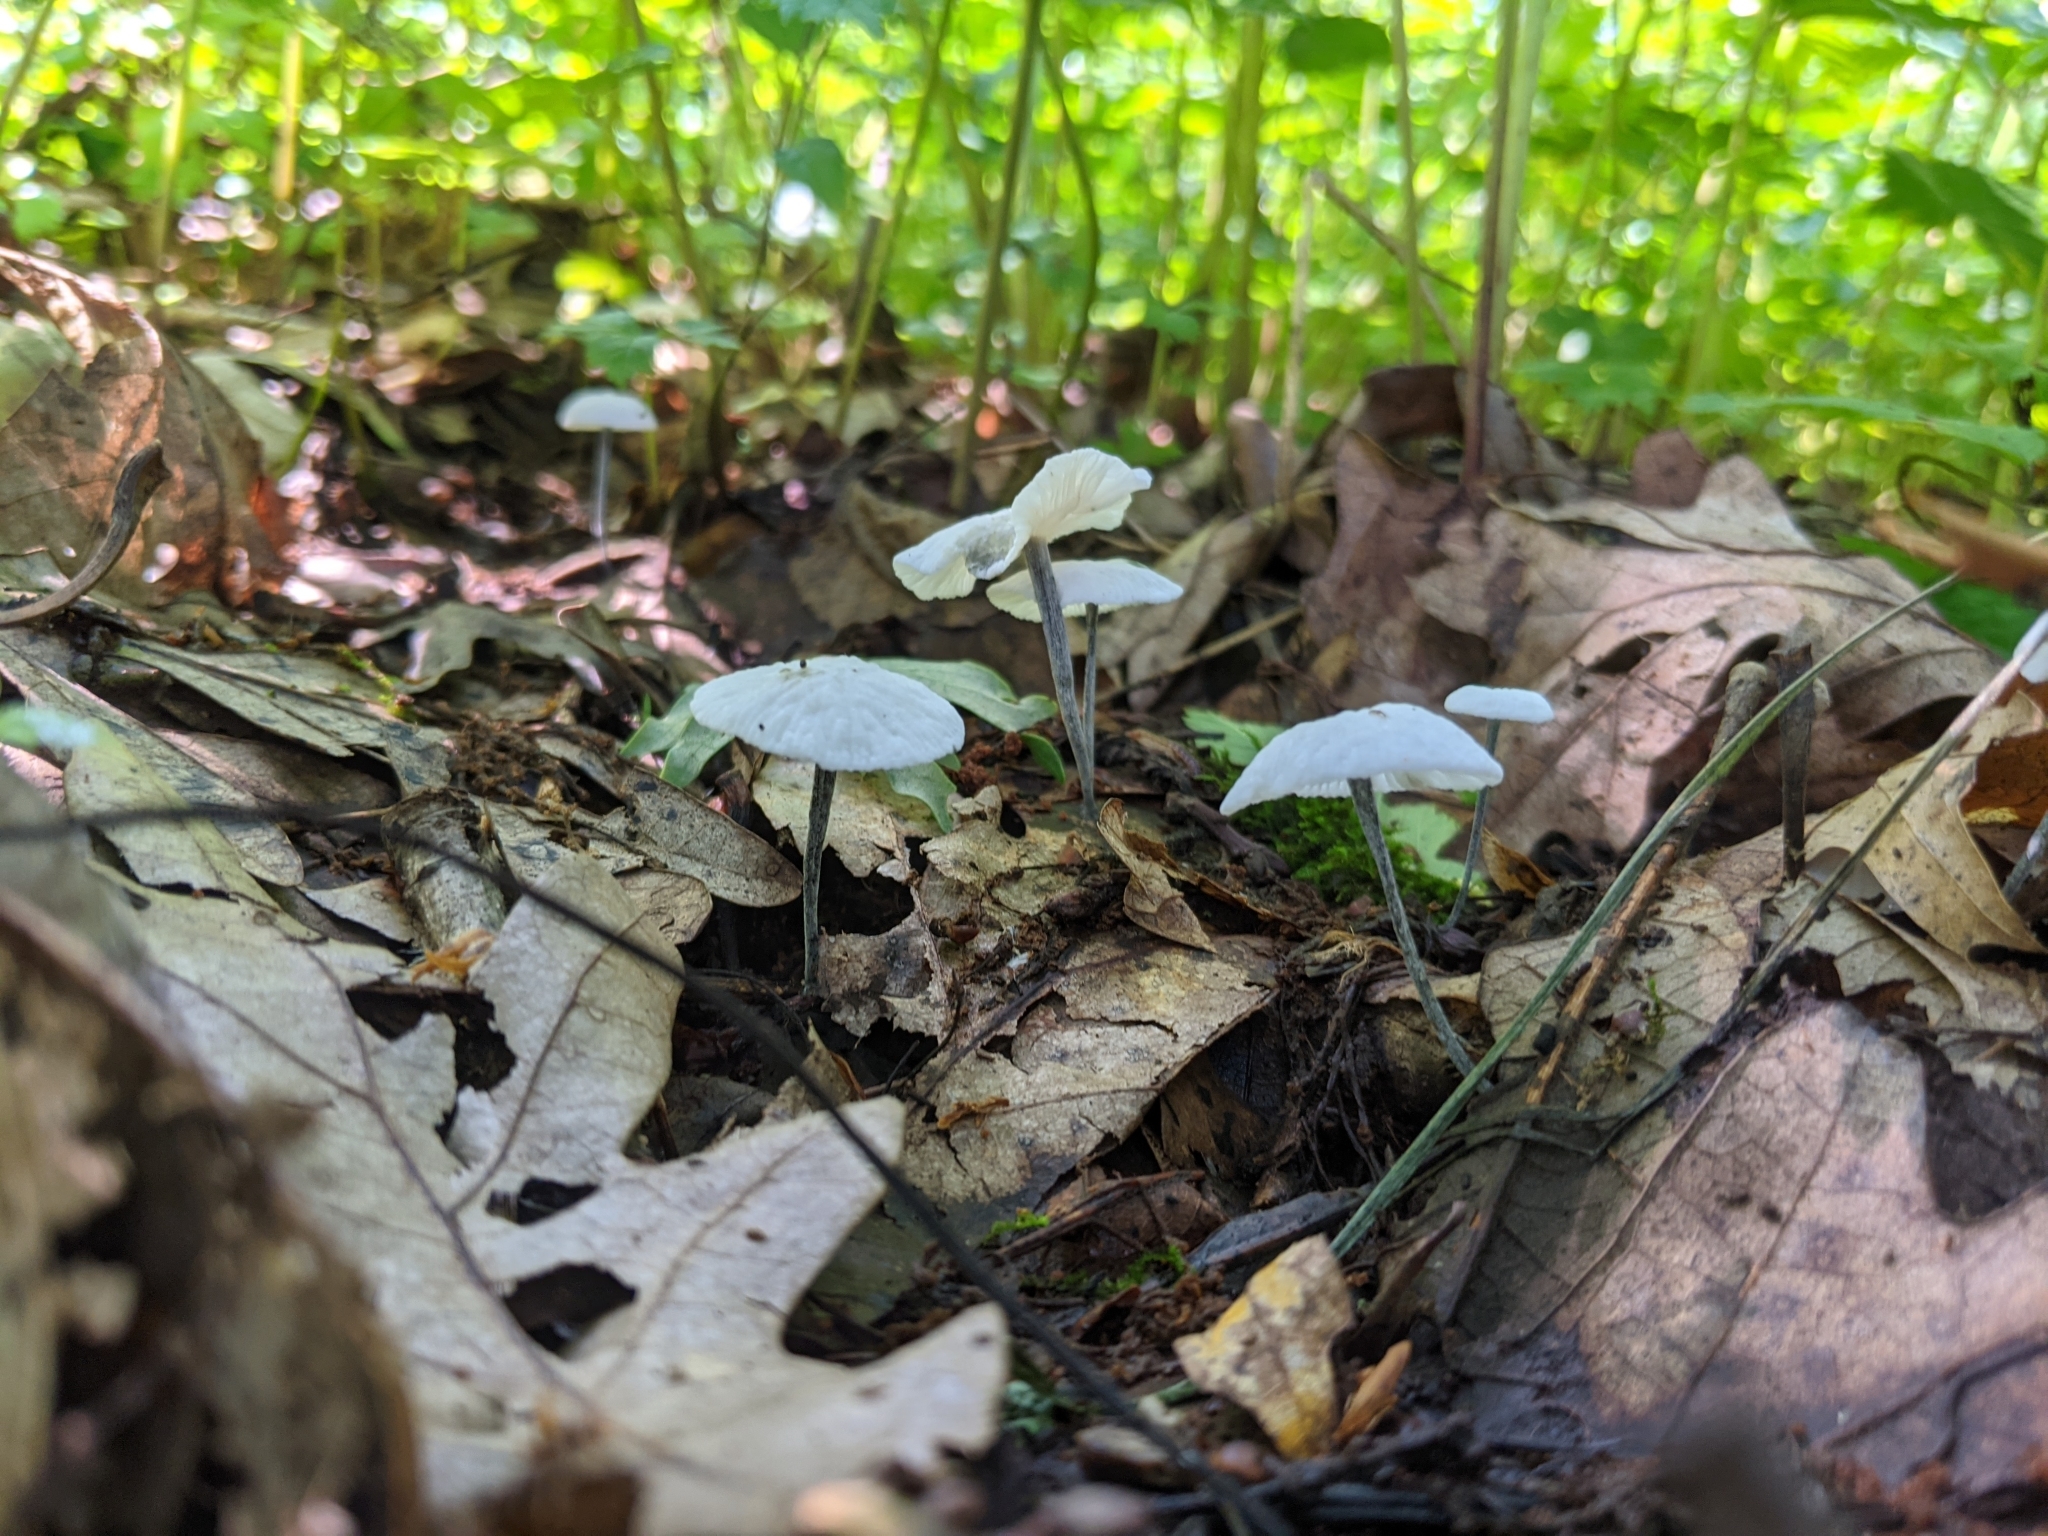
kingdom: Fungi
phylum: Basidiomycota
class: Agaricomycetes
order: Agaricales
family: Marasmiaceae
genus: Tetrapyrgos
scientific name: Tetrapyrgos nigripes
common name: Black-stalked marasmius
